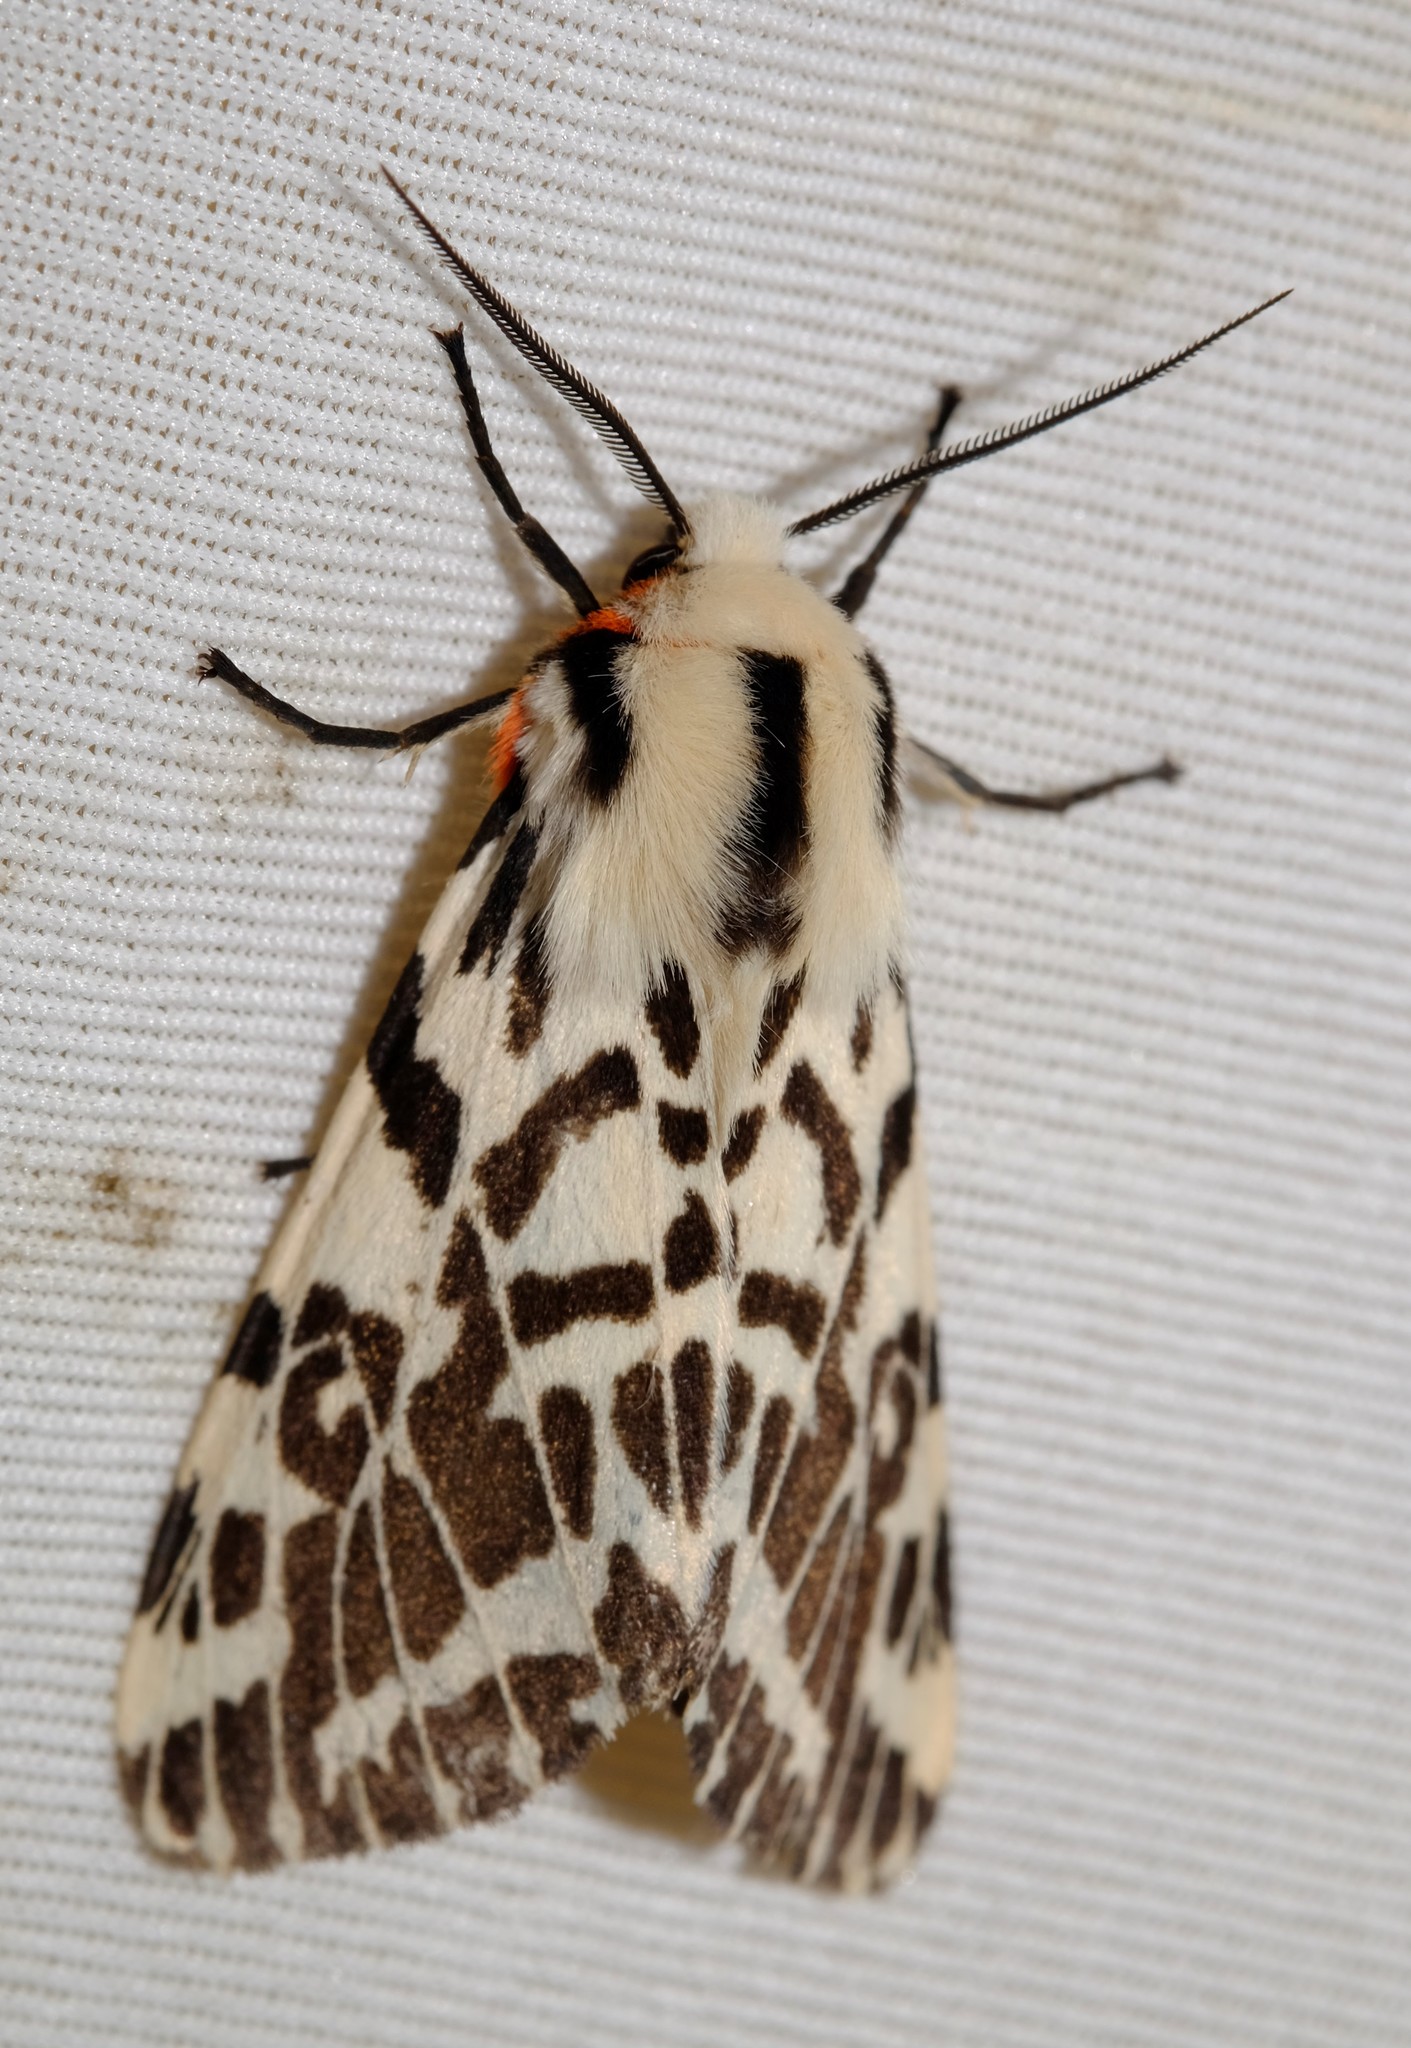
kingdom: Animalia
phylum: Arthropoda
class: Insecta
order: Lepidoptera
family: Erebidae
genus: Ardices
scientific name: Ardices glatignyi
